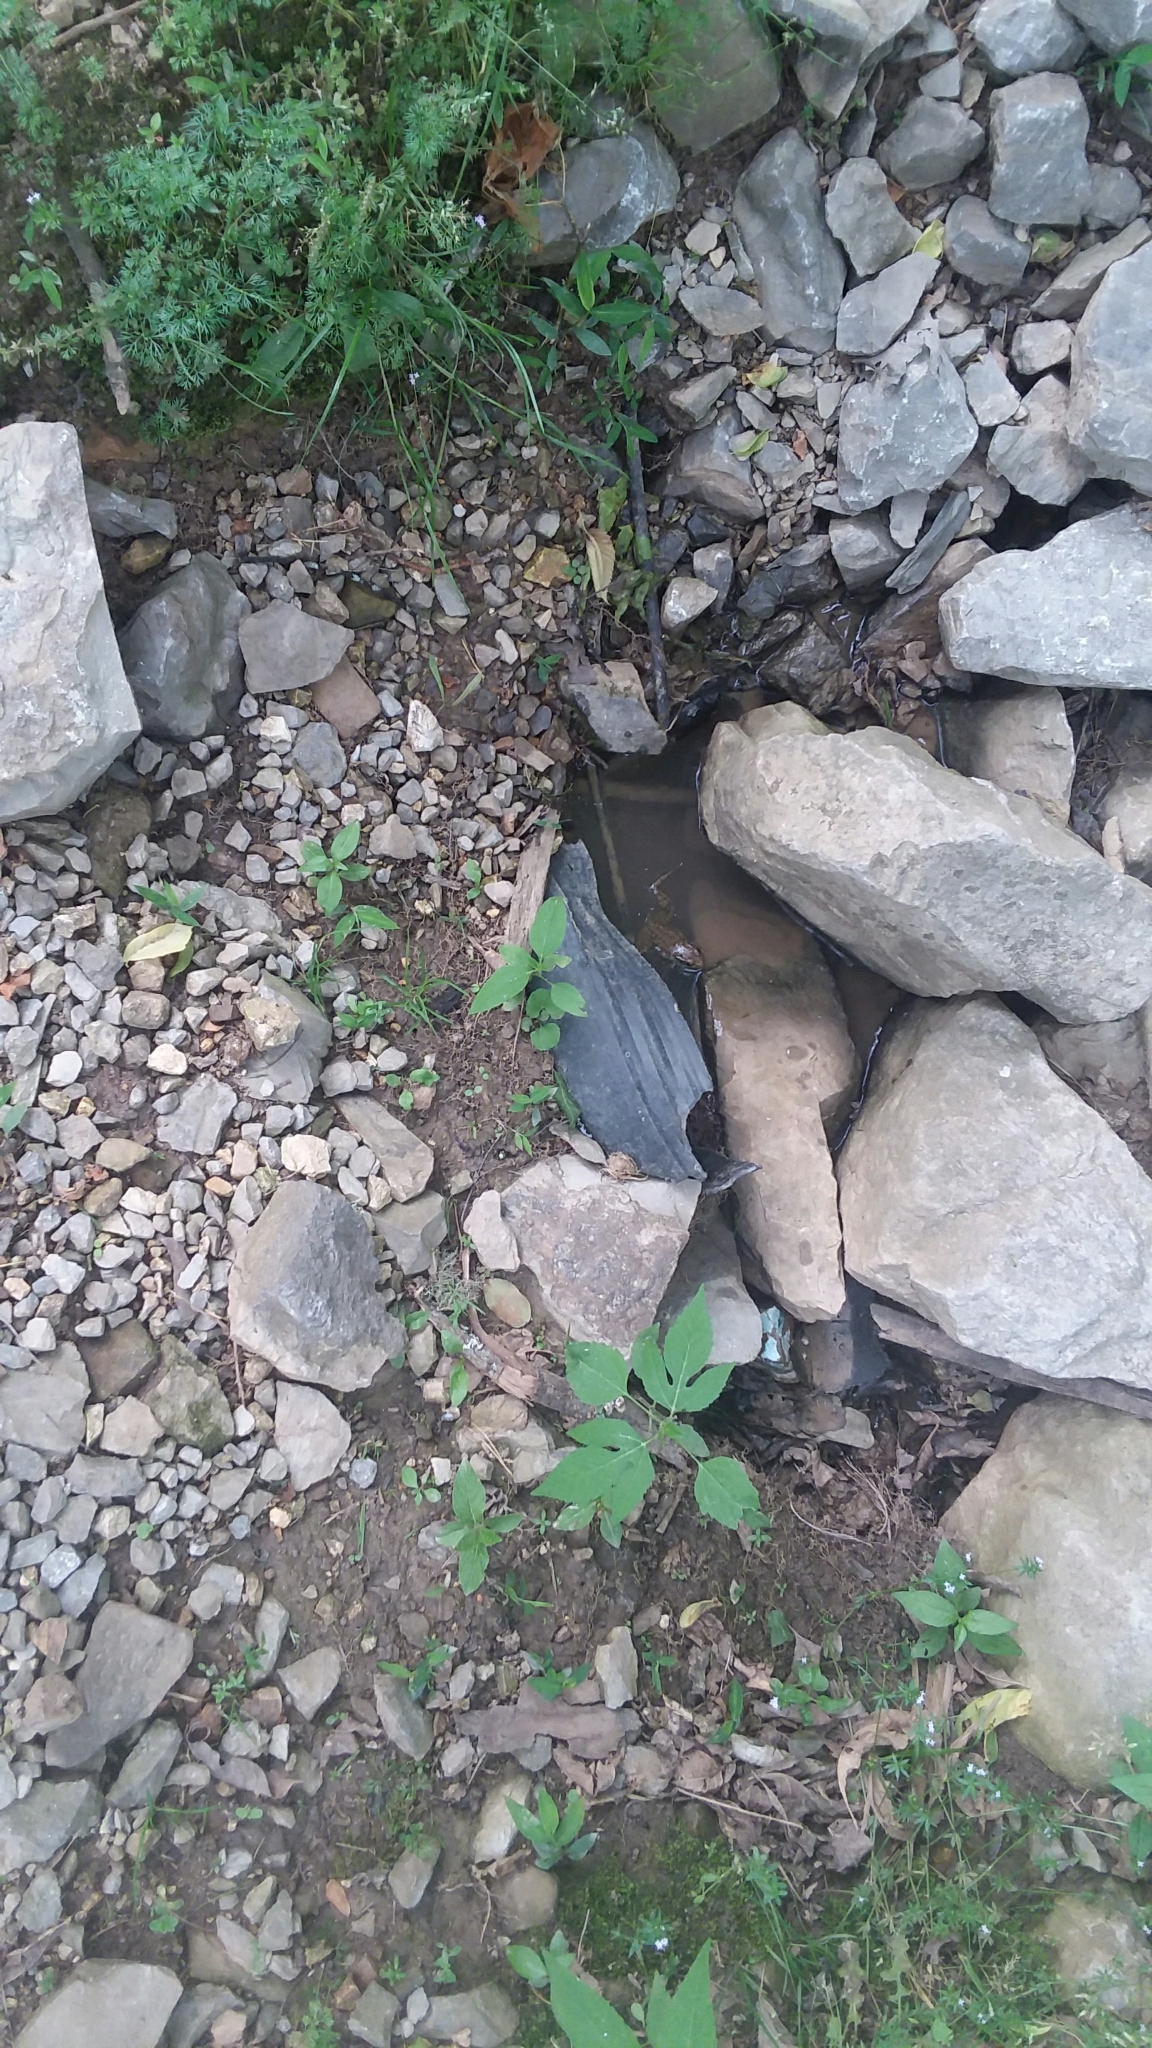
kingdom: Animalia
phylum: Chordata
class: Amphibia
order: Anura
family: Ranidae
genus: Lithobates
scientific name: Lithobates clamitans
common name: Green frog
